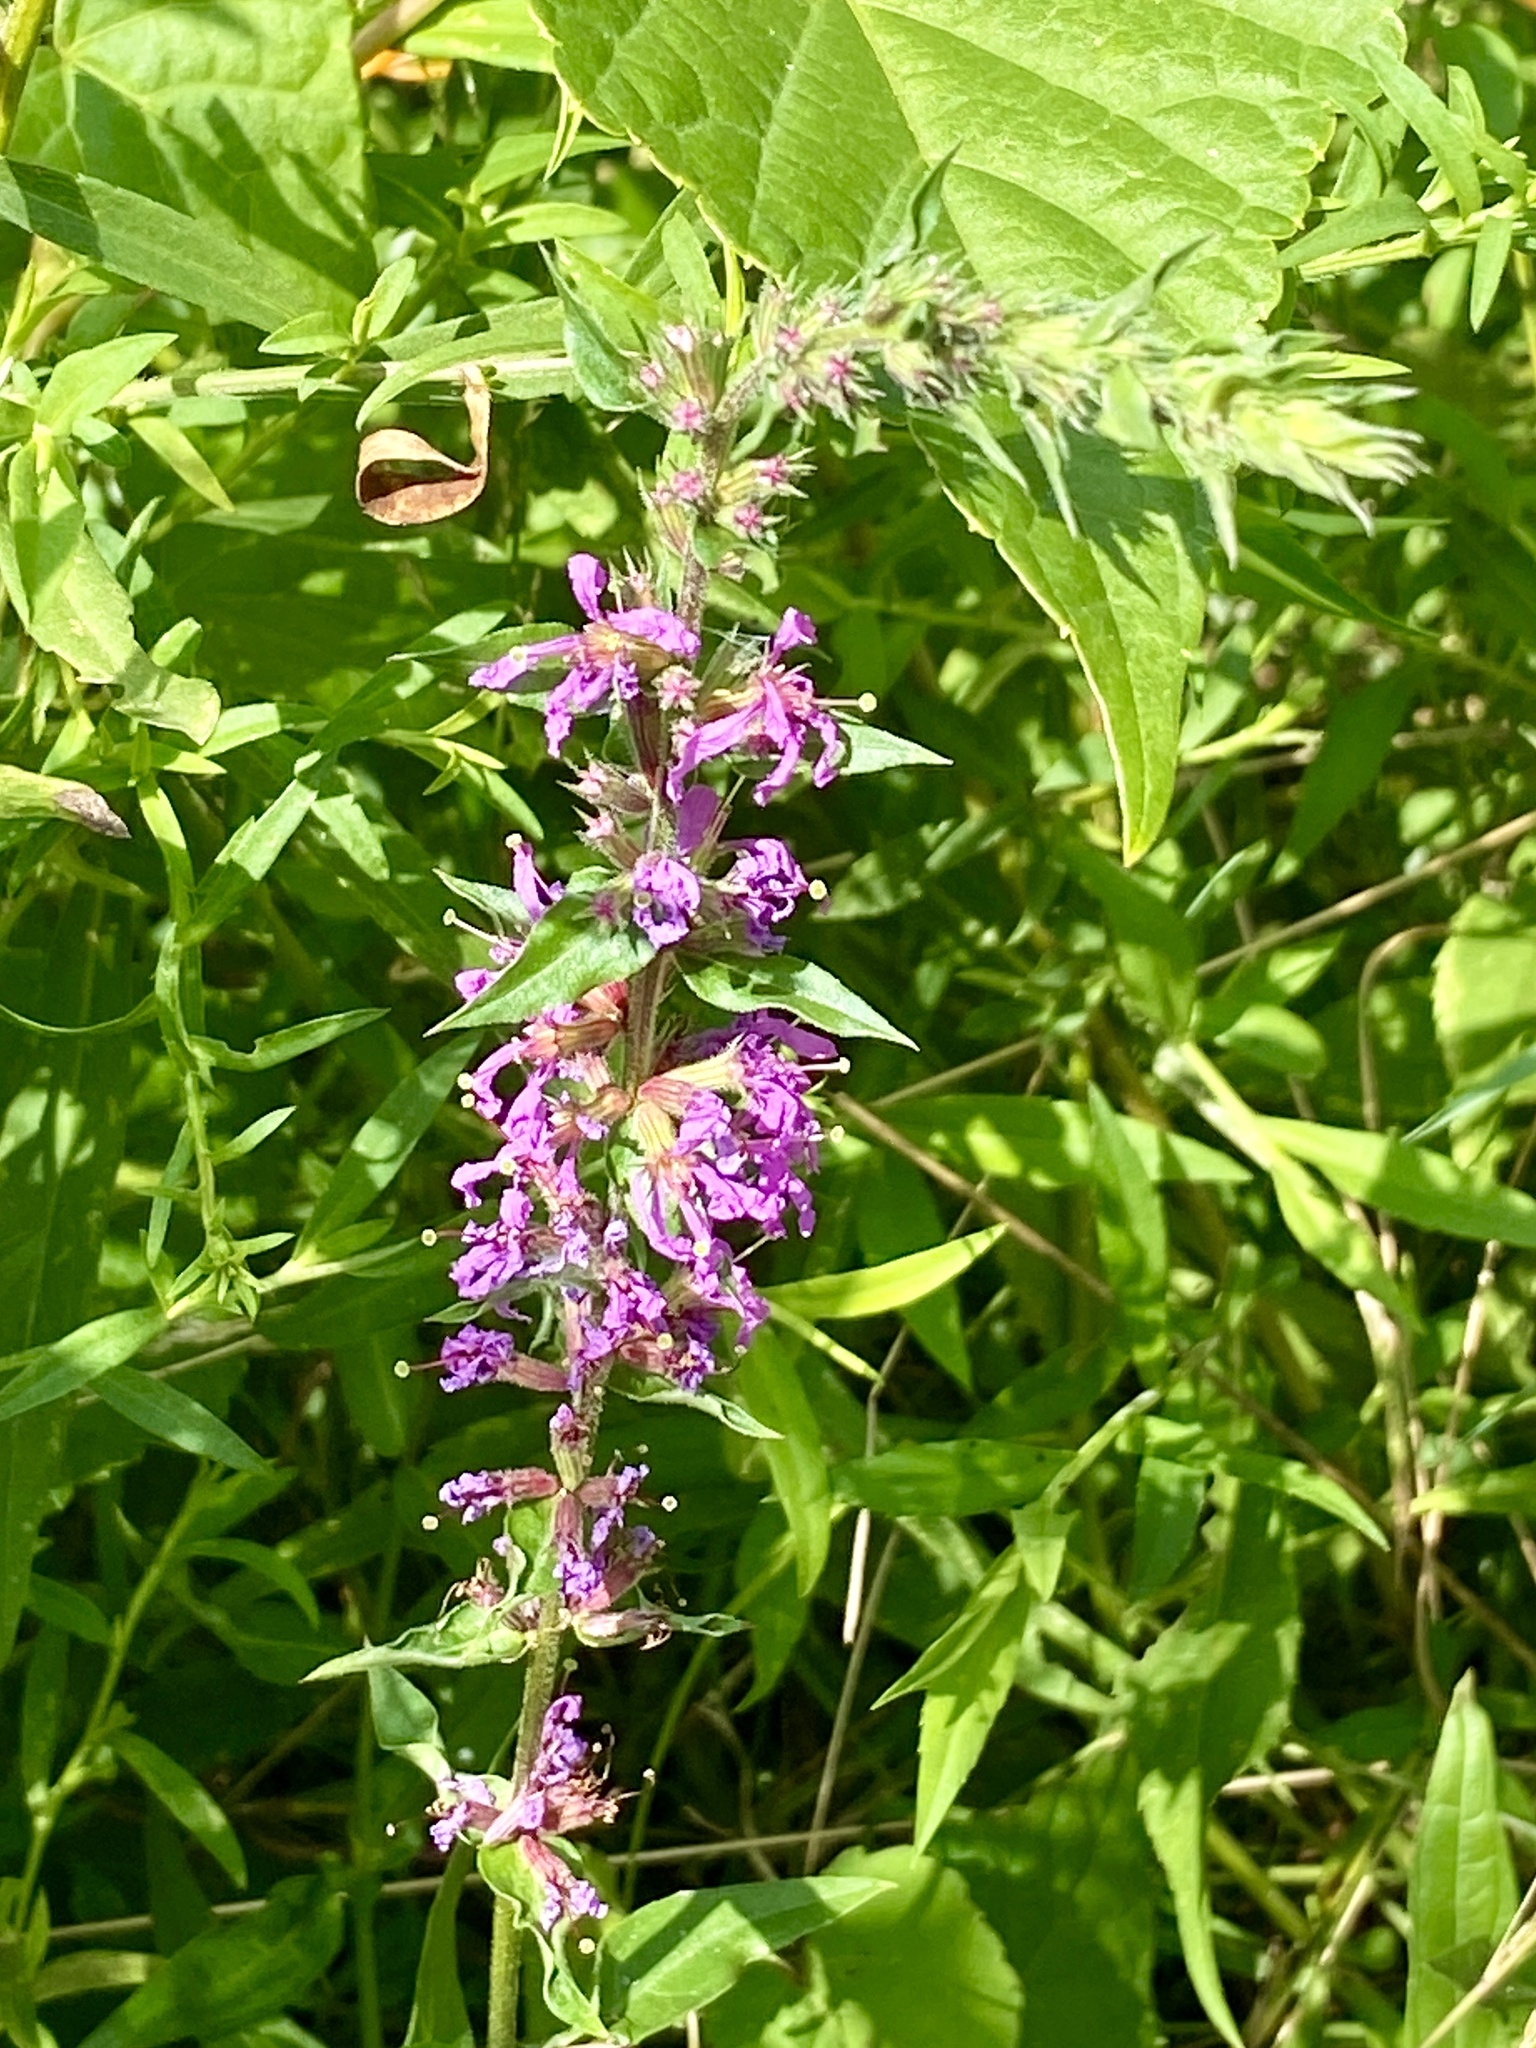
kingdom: Plantae
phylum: Tracheophyta
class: Magnoliopsida
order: Myrtales
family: Lythraceae
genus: Lythrum
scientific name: Lythrum salicaria
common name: Purple loosestrife
